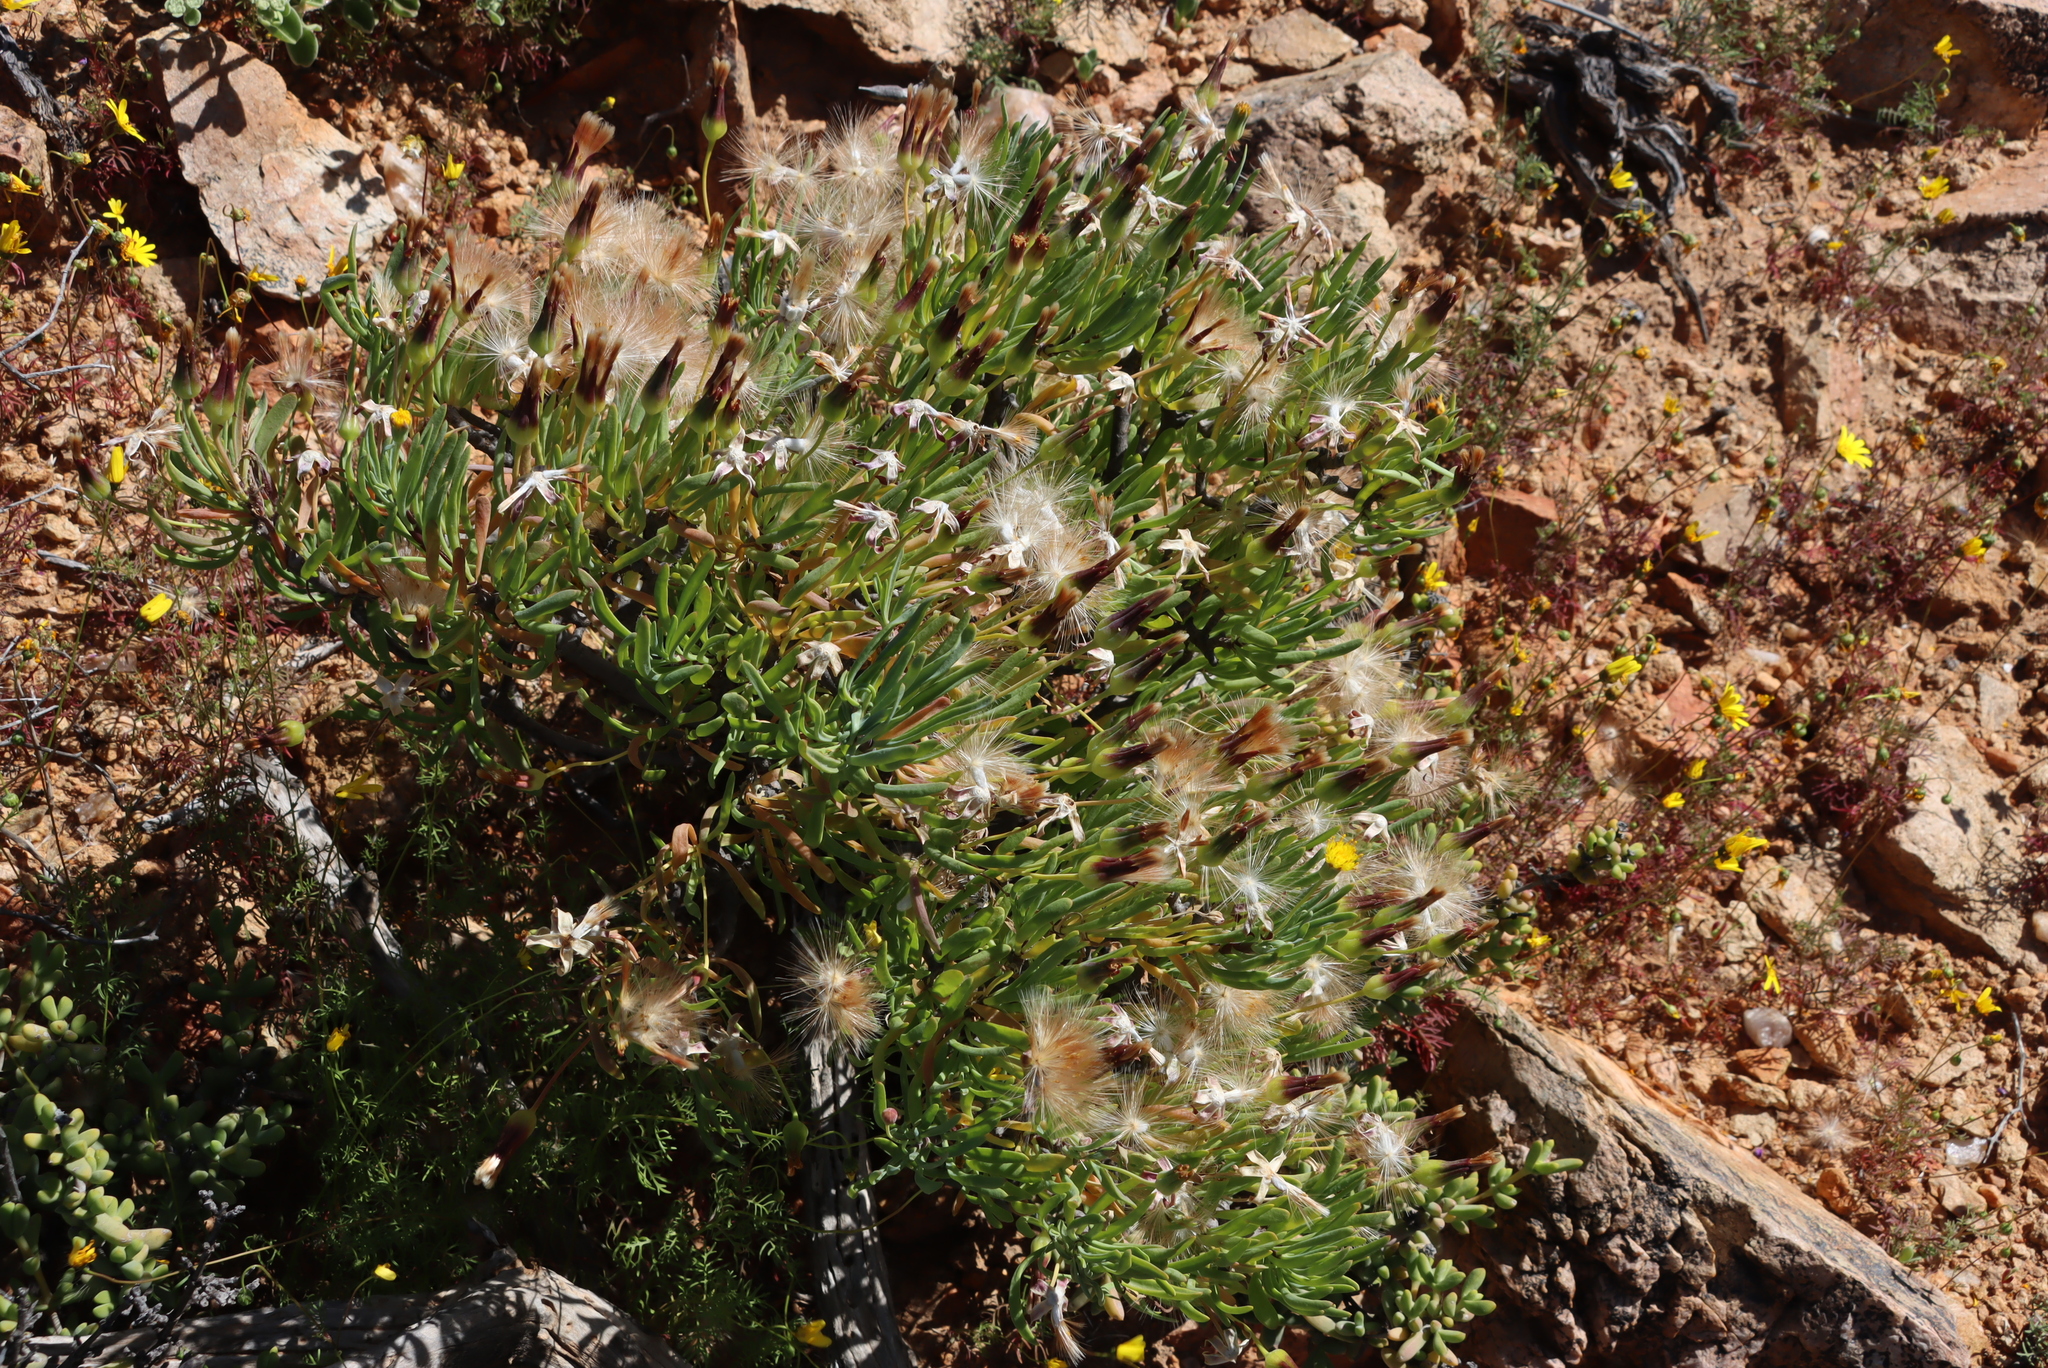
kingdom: Plantae
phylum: Tracheophyta
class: Magnoliopsida
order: Asterales
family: Asteraceae
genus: Othonna
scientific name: Othonna lasiocarpa
